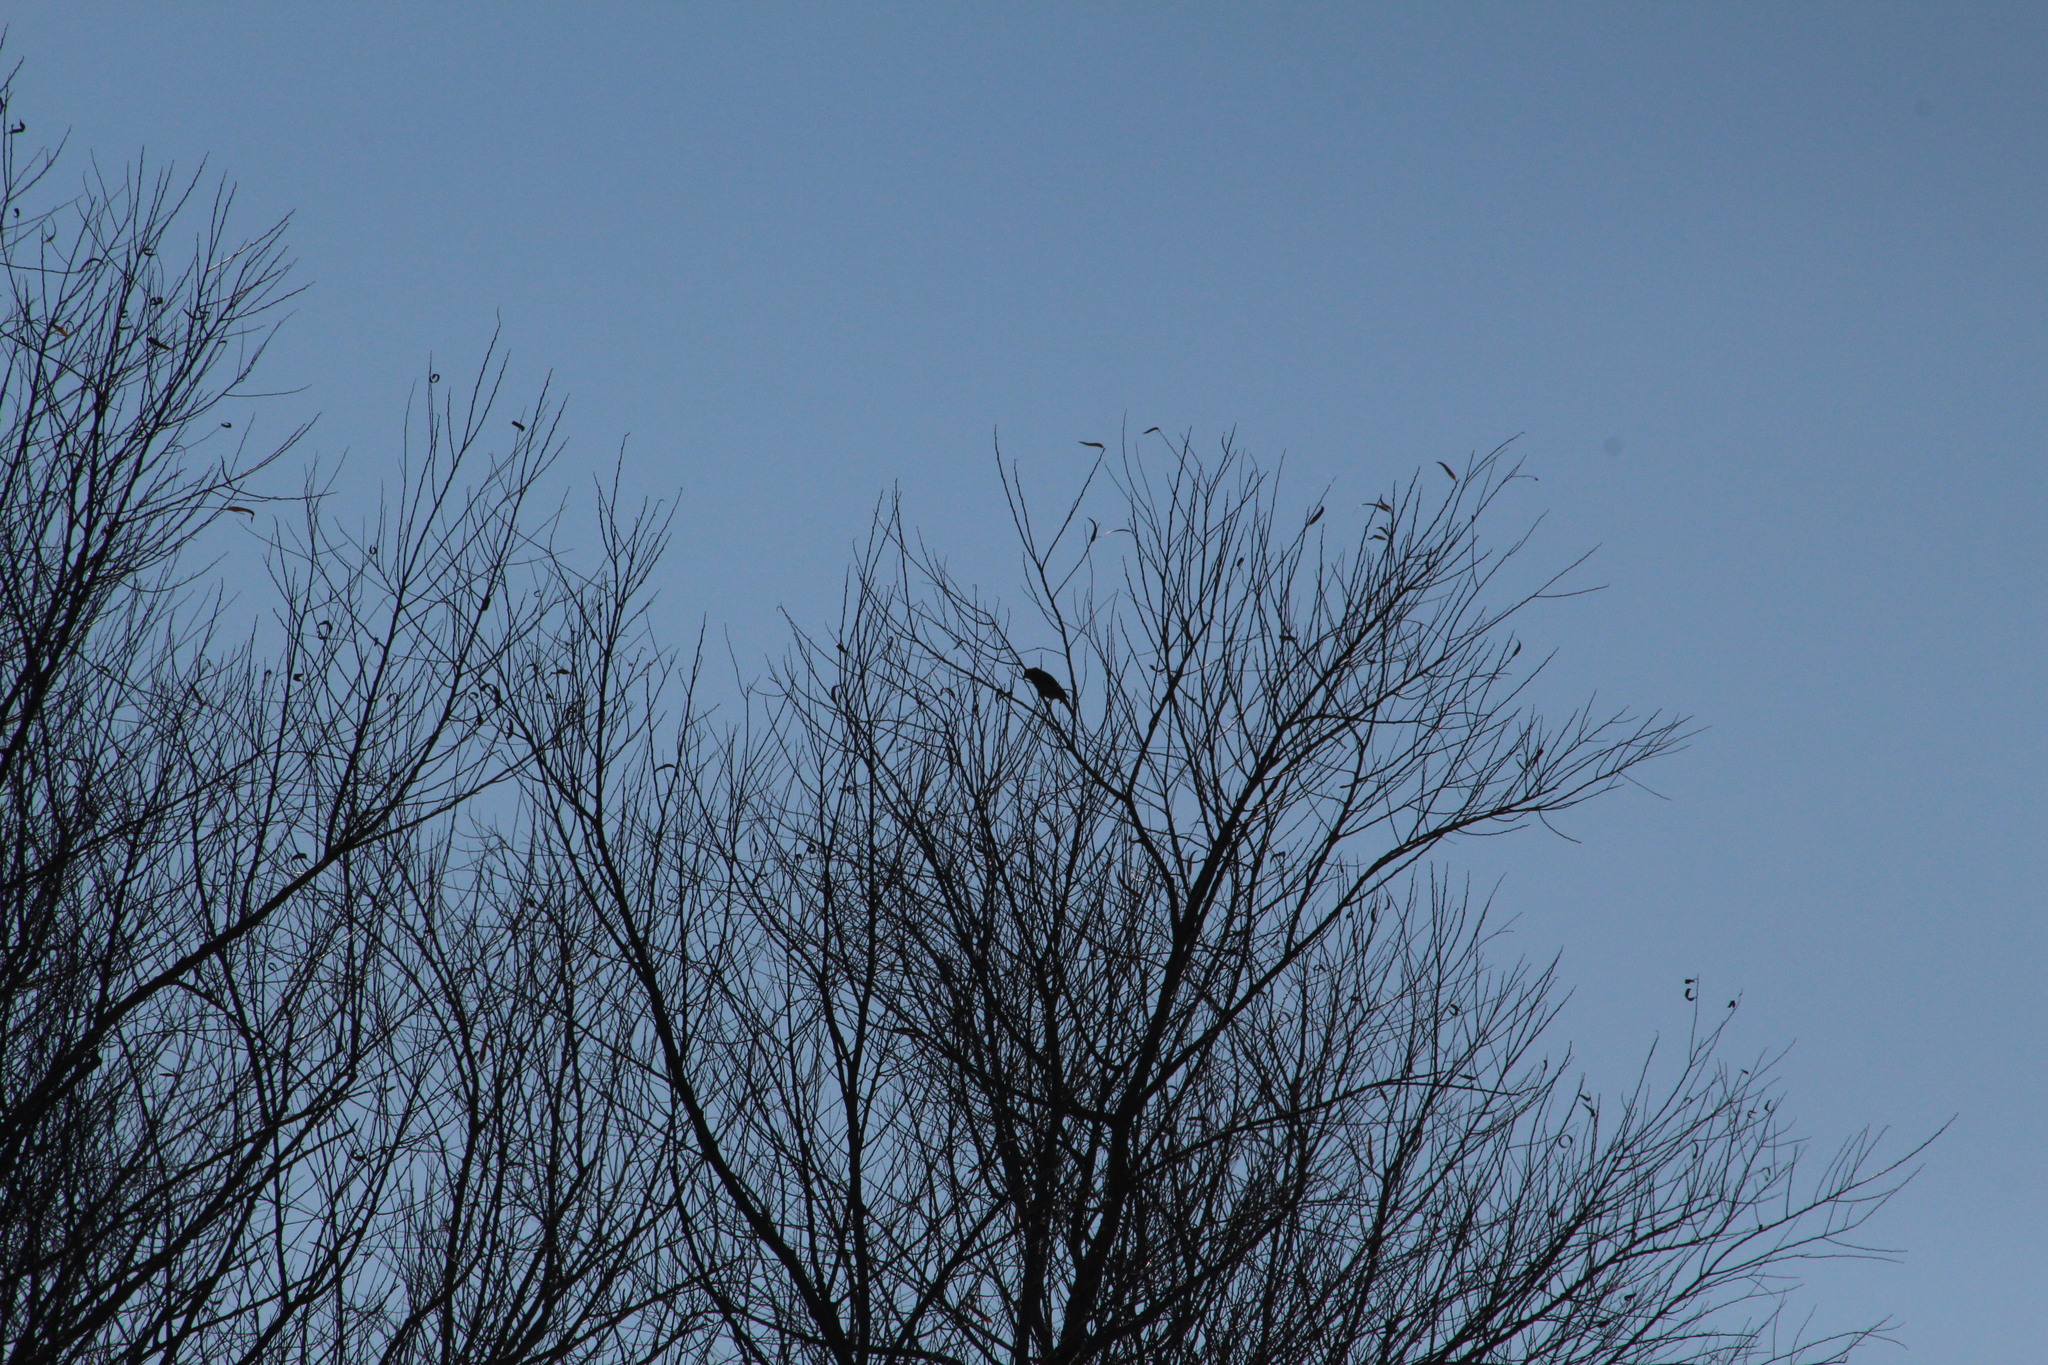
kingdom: Animalia
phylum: Chordata
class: Aves
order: Passeriformes
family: Corvidae
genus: Corvus
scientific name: Corvus brachyrhynchos
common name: American crow
